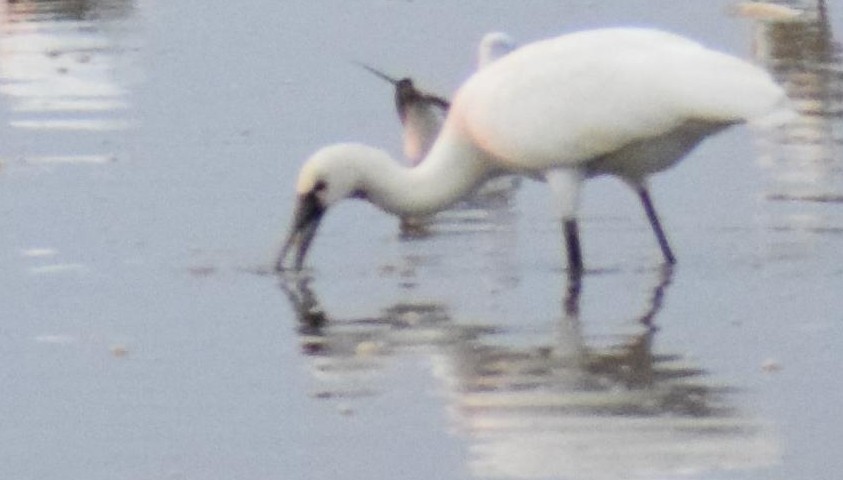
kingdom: Animalia
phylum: Chordata
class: Aves
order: Pelecaniformes
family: Threskiornithidae
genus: Platalea
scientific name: Platalea leucorodia
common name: Eurasian spoonbill
